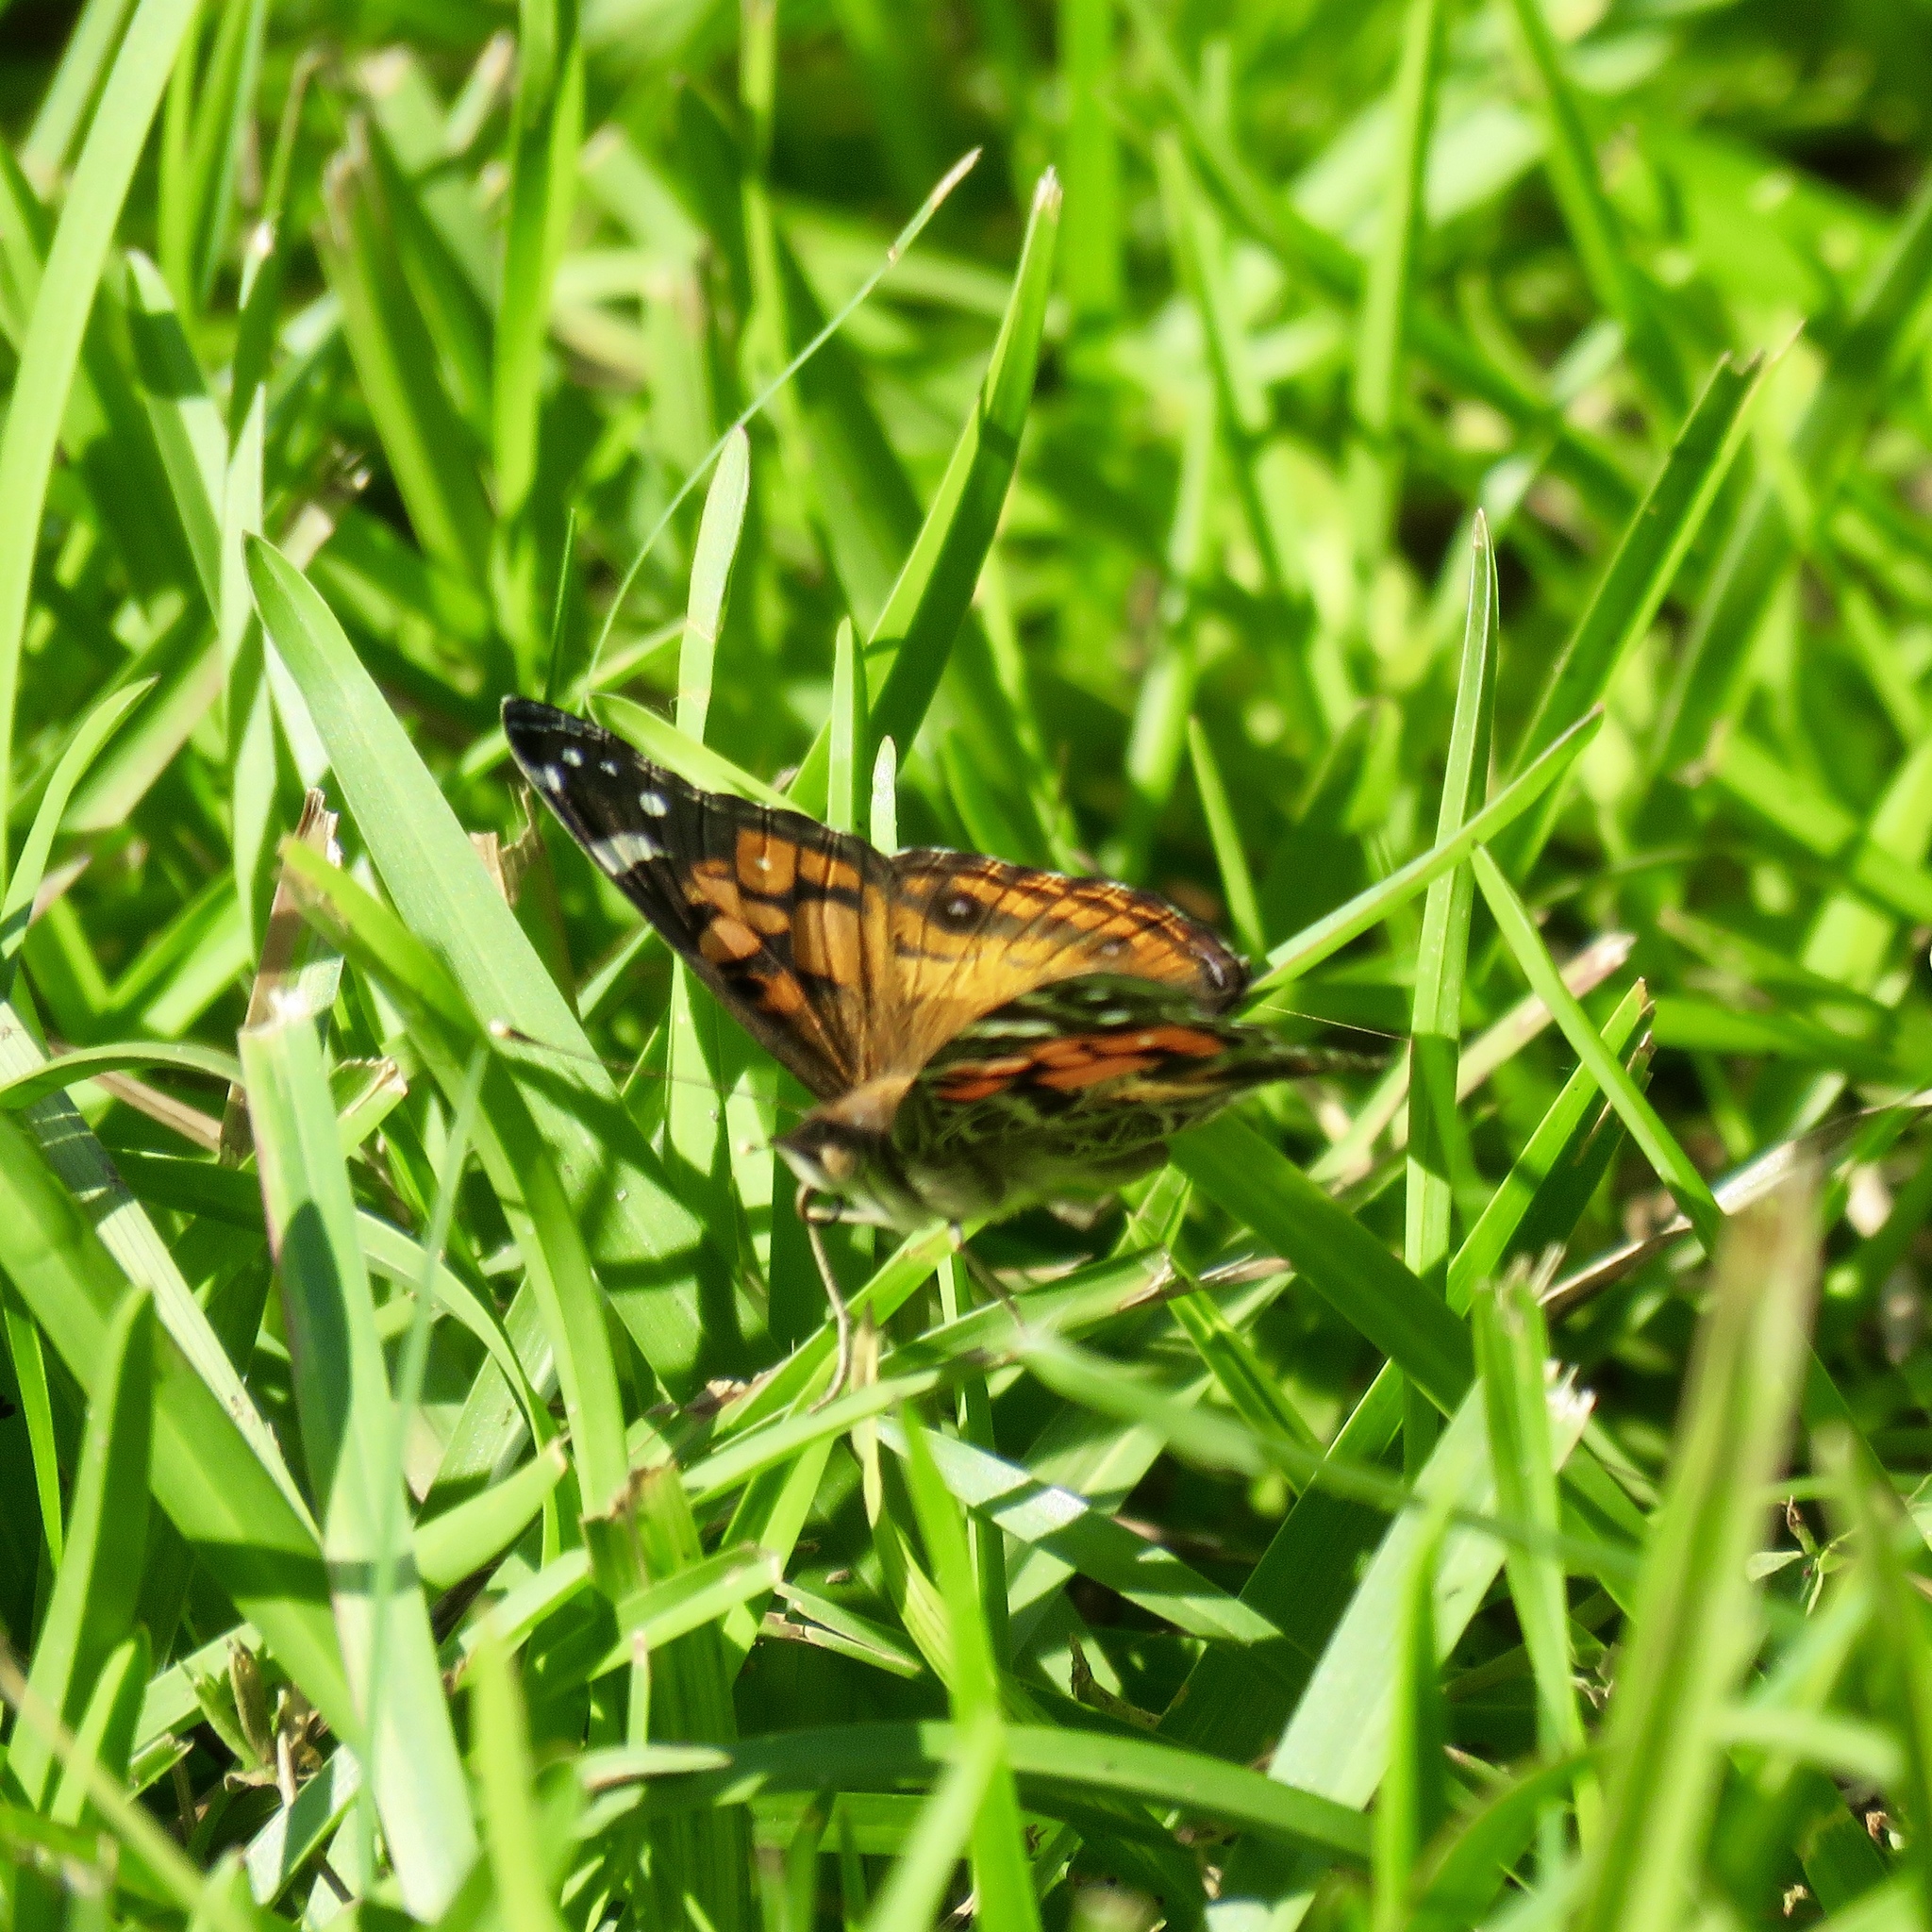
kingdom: Animalia
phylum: Arthropoda
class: Insecta
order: Lepidoptera
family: Nymphalidae
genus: Vanessa
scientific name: Vanessa virginiensis
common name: American lady
